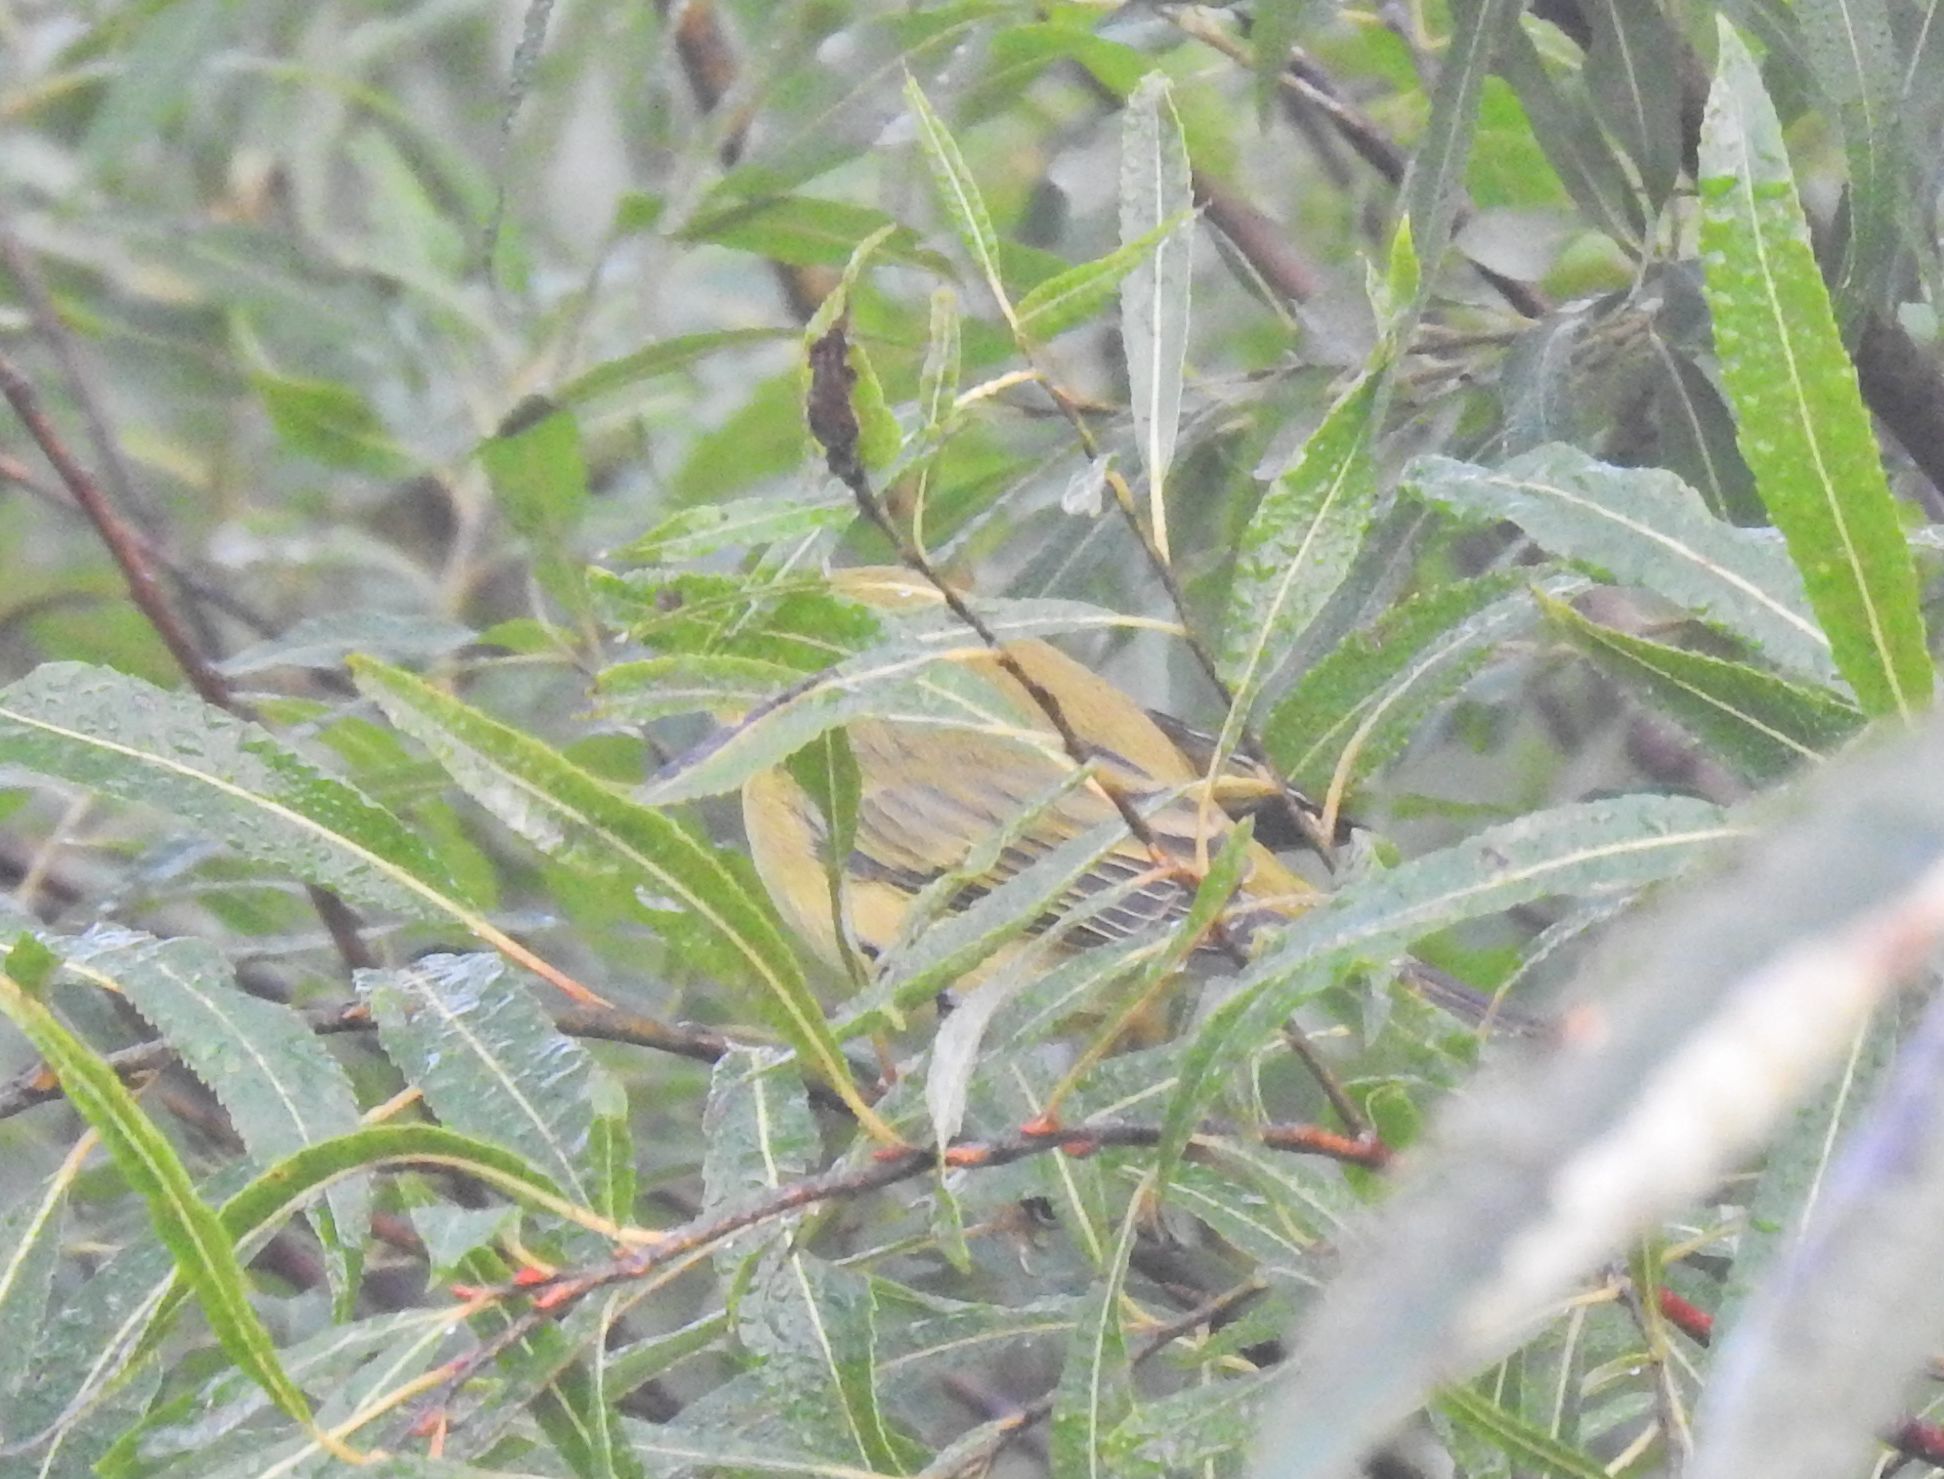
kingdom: Animalia
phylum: Chordata
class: Aves
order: Passeriformes
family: Parulidae
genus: Setophaga
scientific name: Setophaga petechia
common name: Yellow warbler
